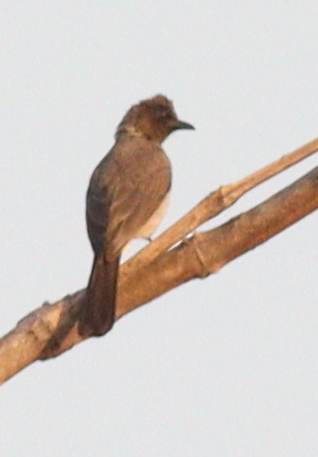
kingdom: Animalia
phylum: Chordata
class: Aves
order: Passeriformes
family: Pycnonotidae
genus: Pycnonotus
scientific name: Pycnonotus barbatus
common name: Common bulbul
